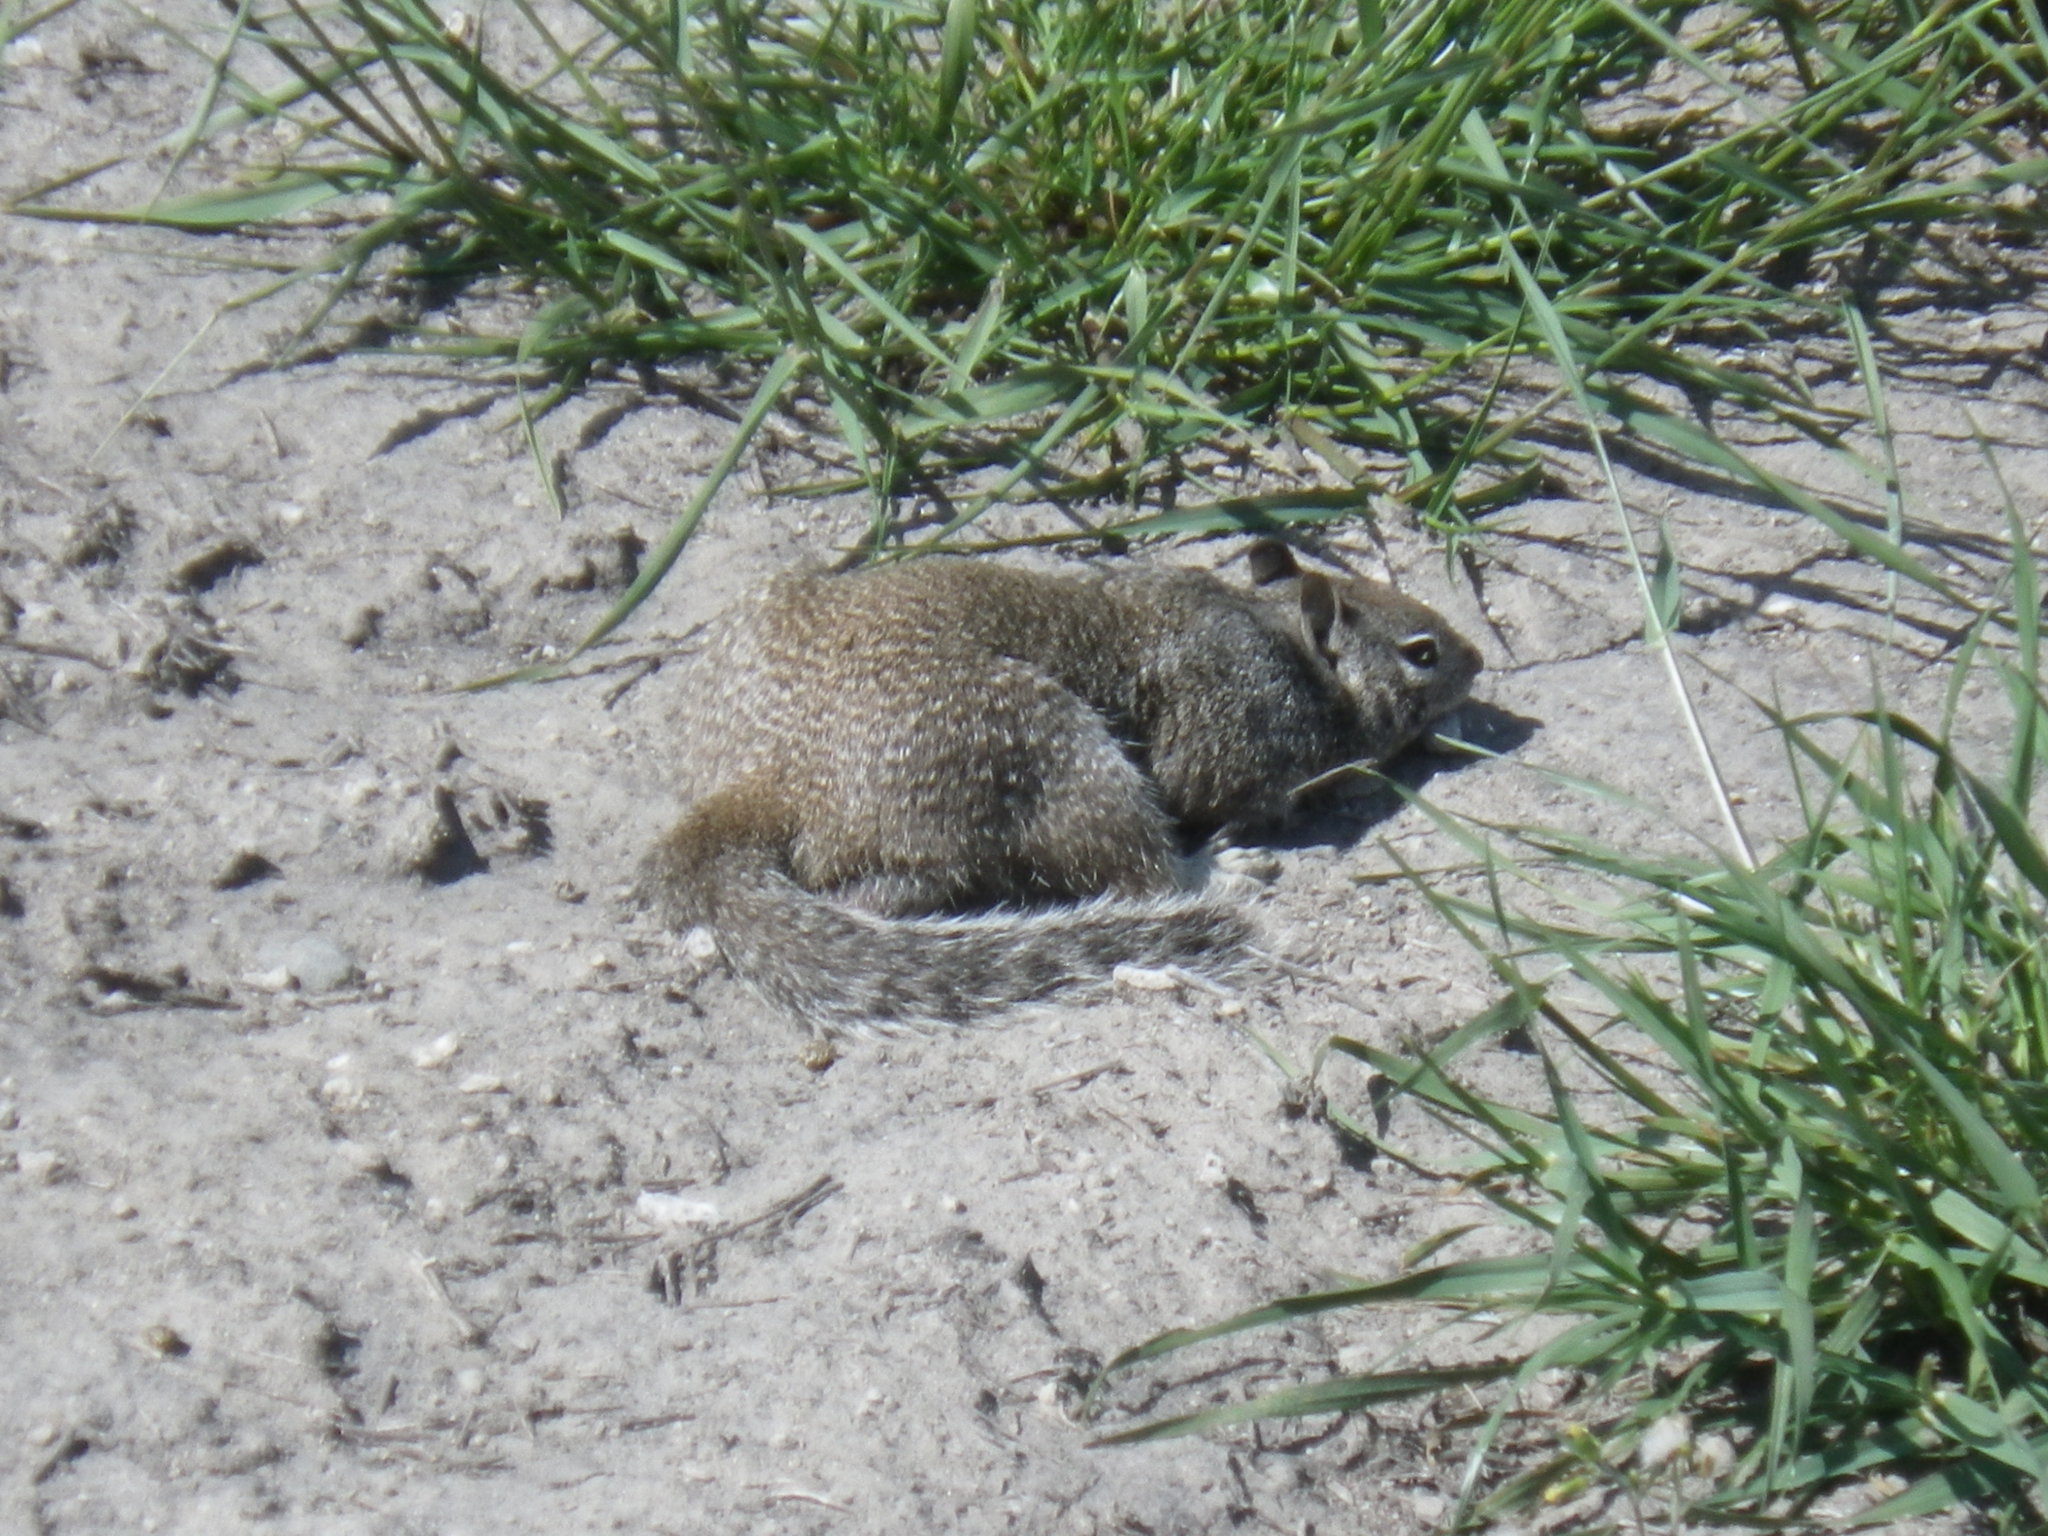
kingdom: Animalia
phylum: Chordata
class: Mammalia
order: Rodentia
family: Sciuridae
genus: Otospermophilus
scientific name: Otospermophilus beecheyi
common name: California ground squirrel
